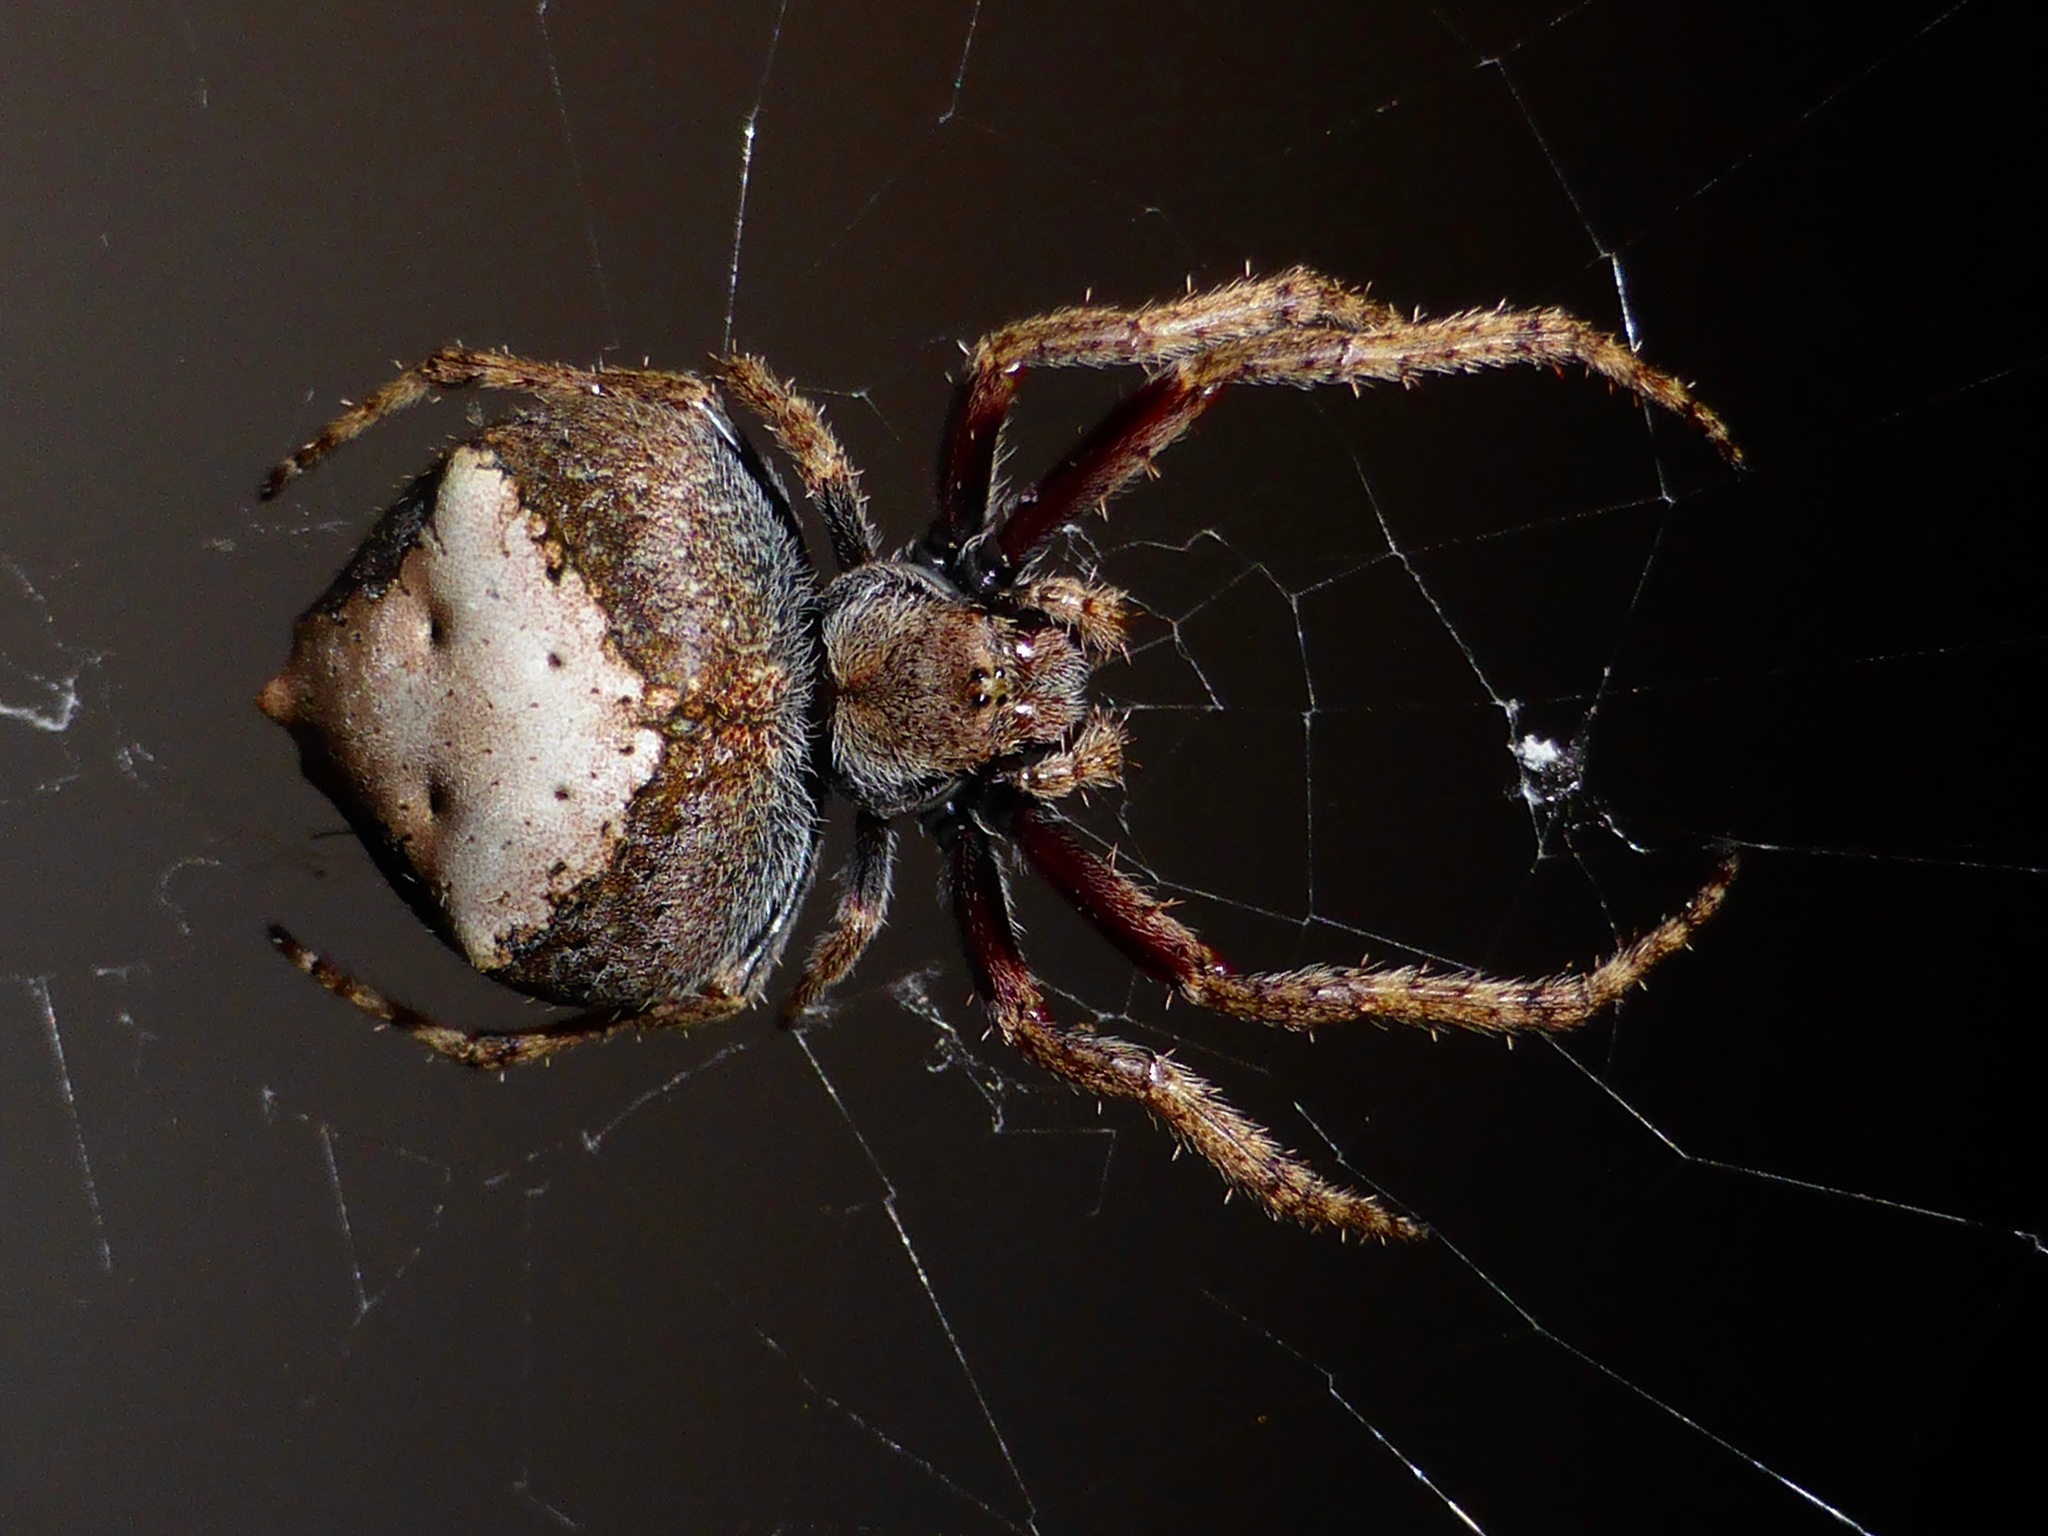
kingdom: Animalia
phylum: Arthropoda
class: Arachnida
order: Araneae
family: Araneidae
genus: Eriophora
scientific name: Eriophora pustulosa
